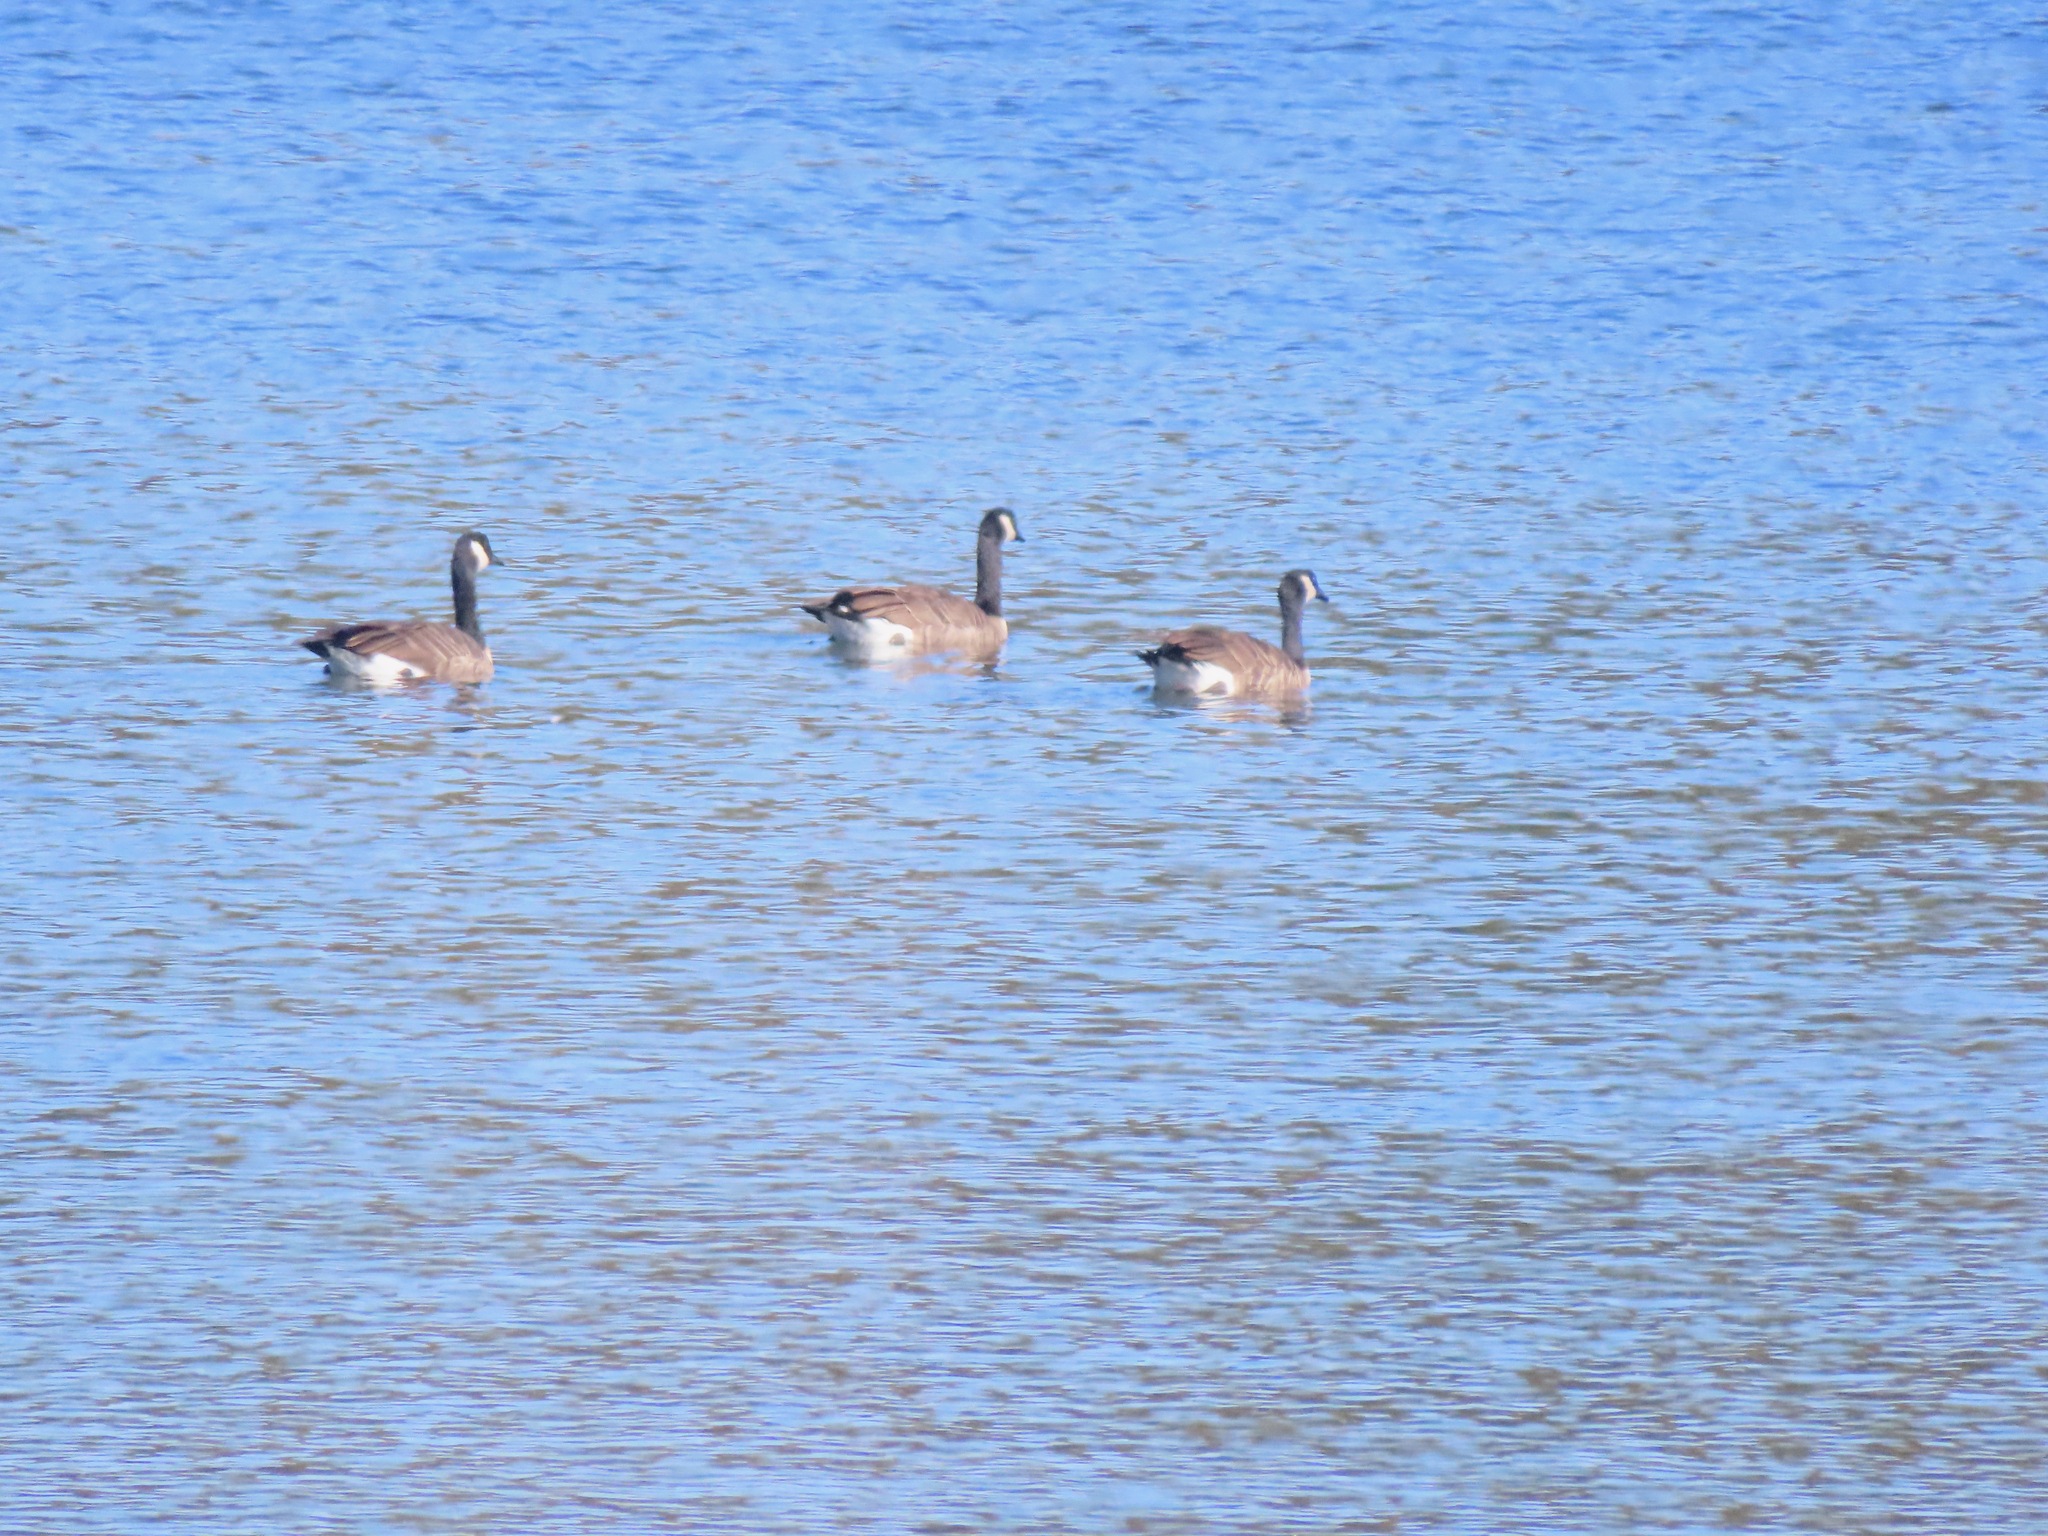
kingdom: Animalia
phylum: Chordata
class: Aves
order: Anseriformes
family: Anatidae
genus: Branta
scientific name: Branta canadensis
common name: Canada goose
